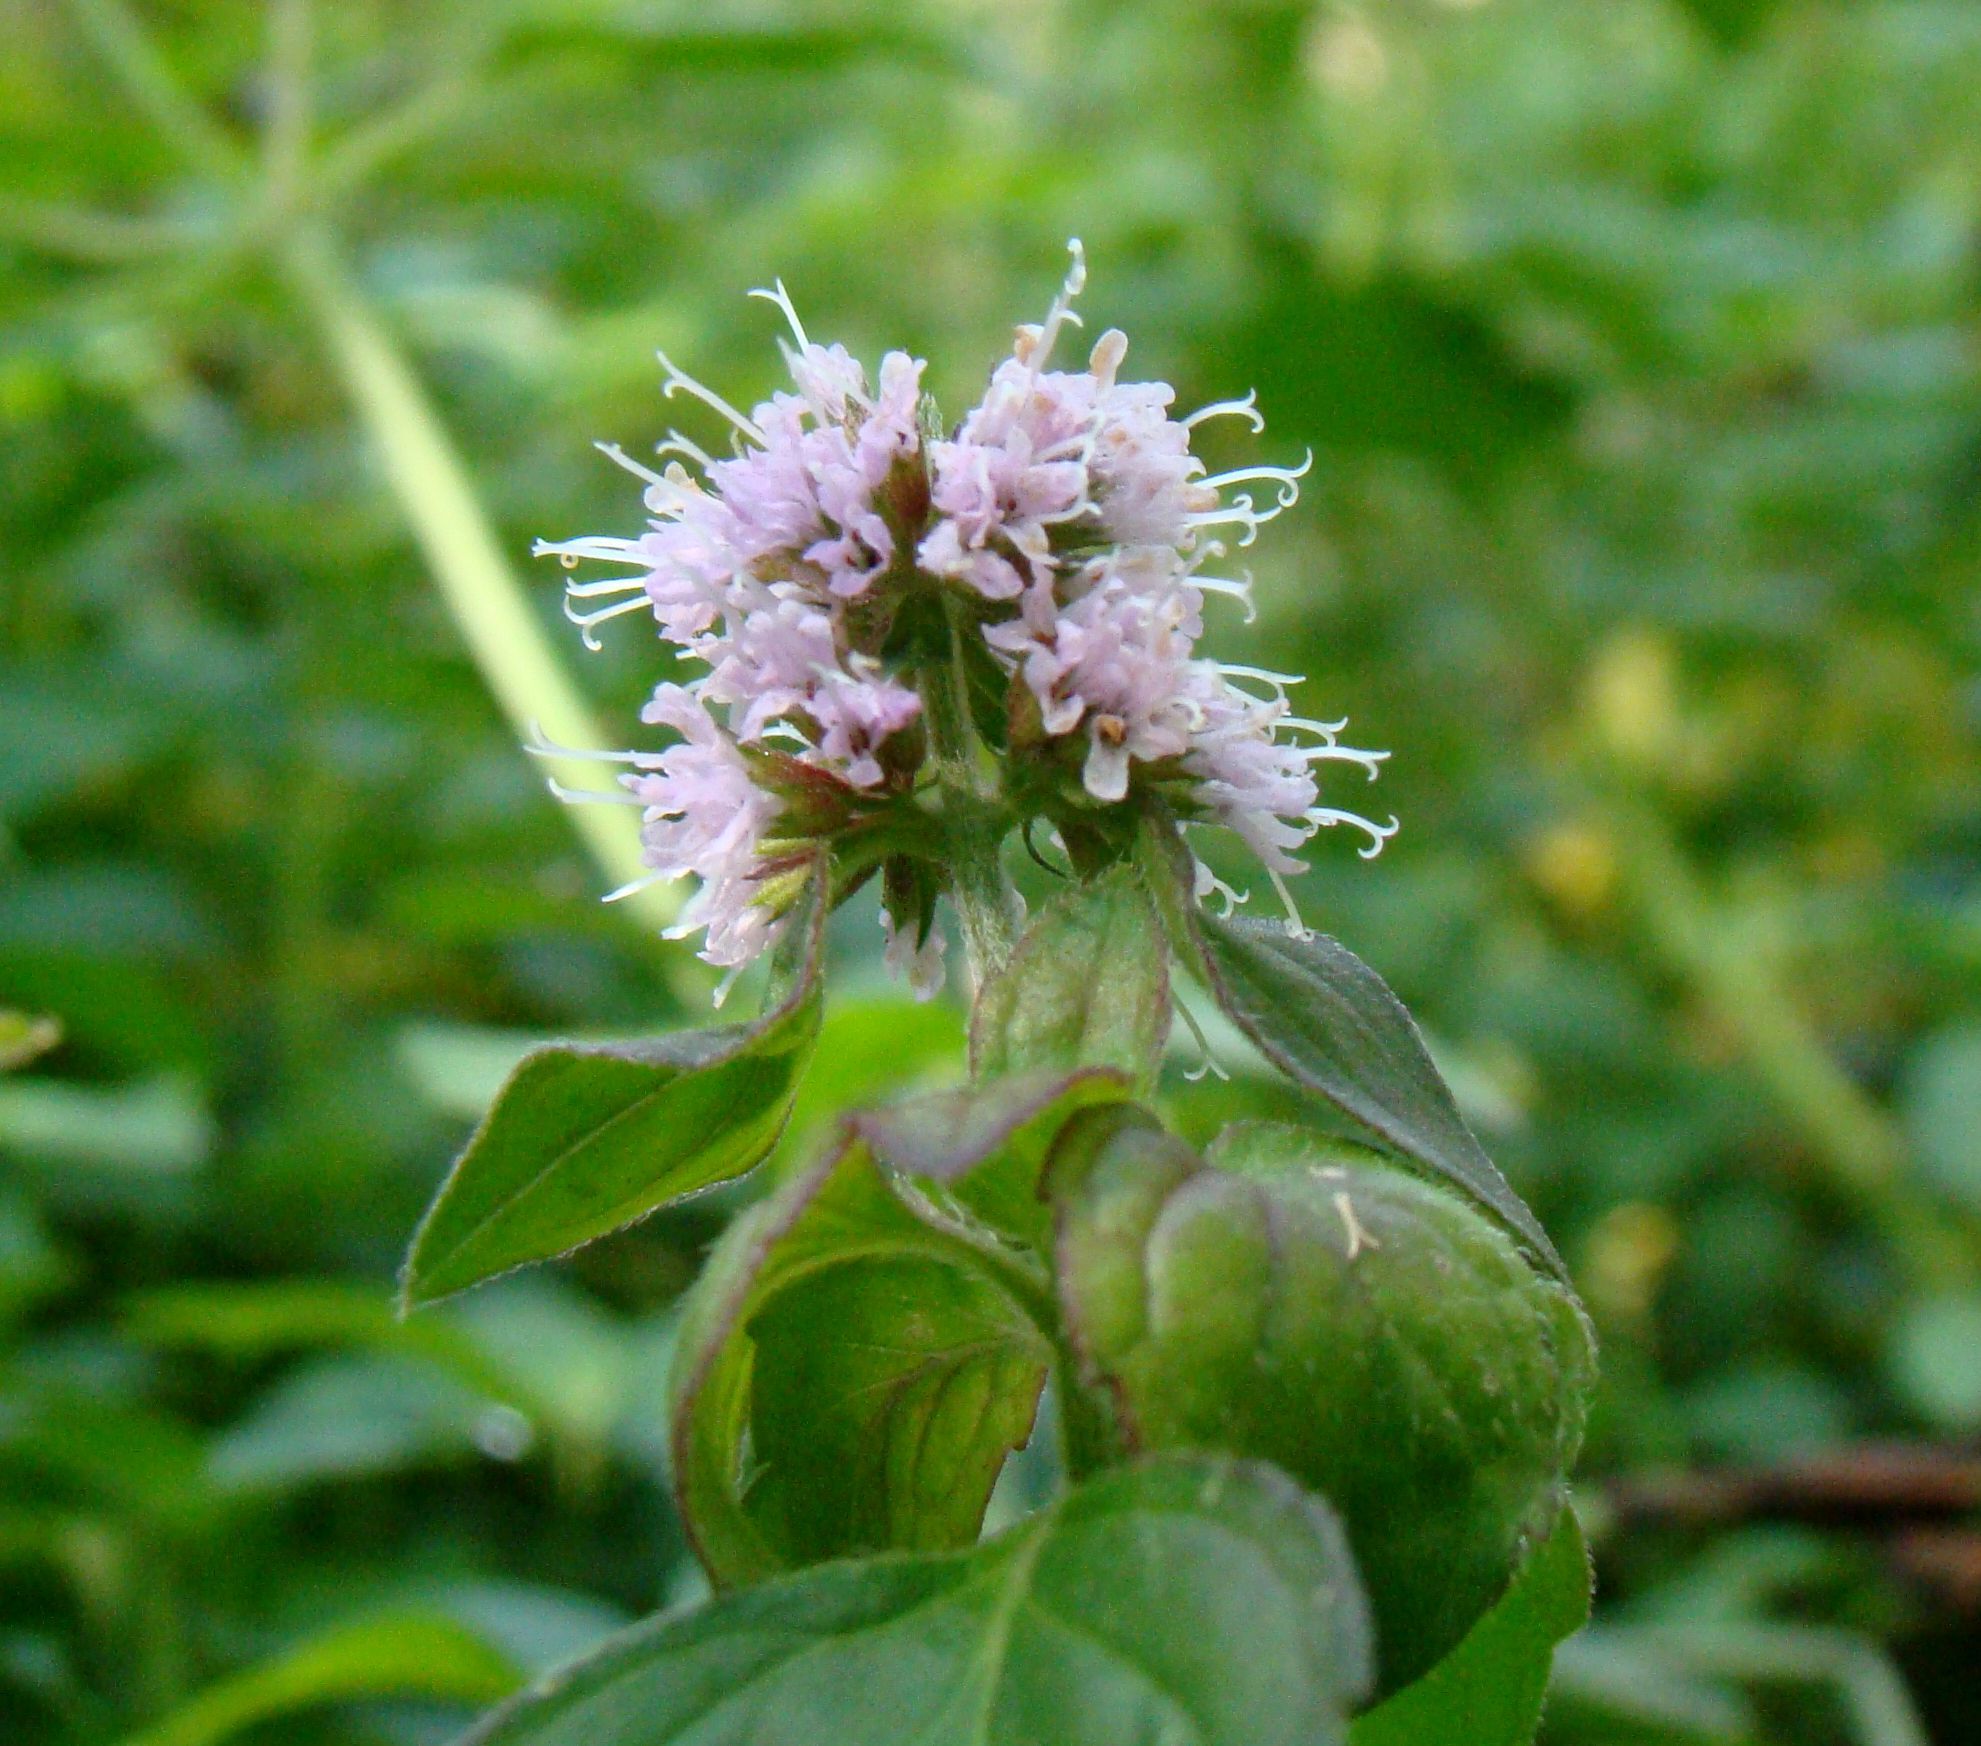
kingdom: Plantae
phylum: Tracheophyta
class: Magnoliopsida
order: Lamiales
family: Lamiaceae
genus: Mentha
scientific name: Mentha aquatica
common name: Water mint
